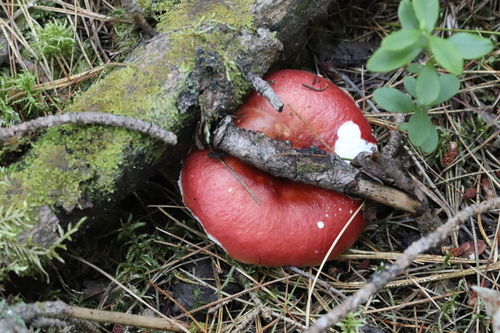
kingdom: Fungi
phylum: Basidiomycota
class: Agaricomycetes
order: Russulales
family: Russulaceae
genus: Russula
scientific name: Russula
